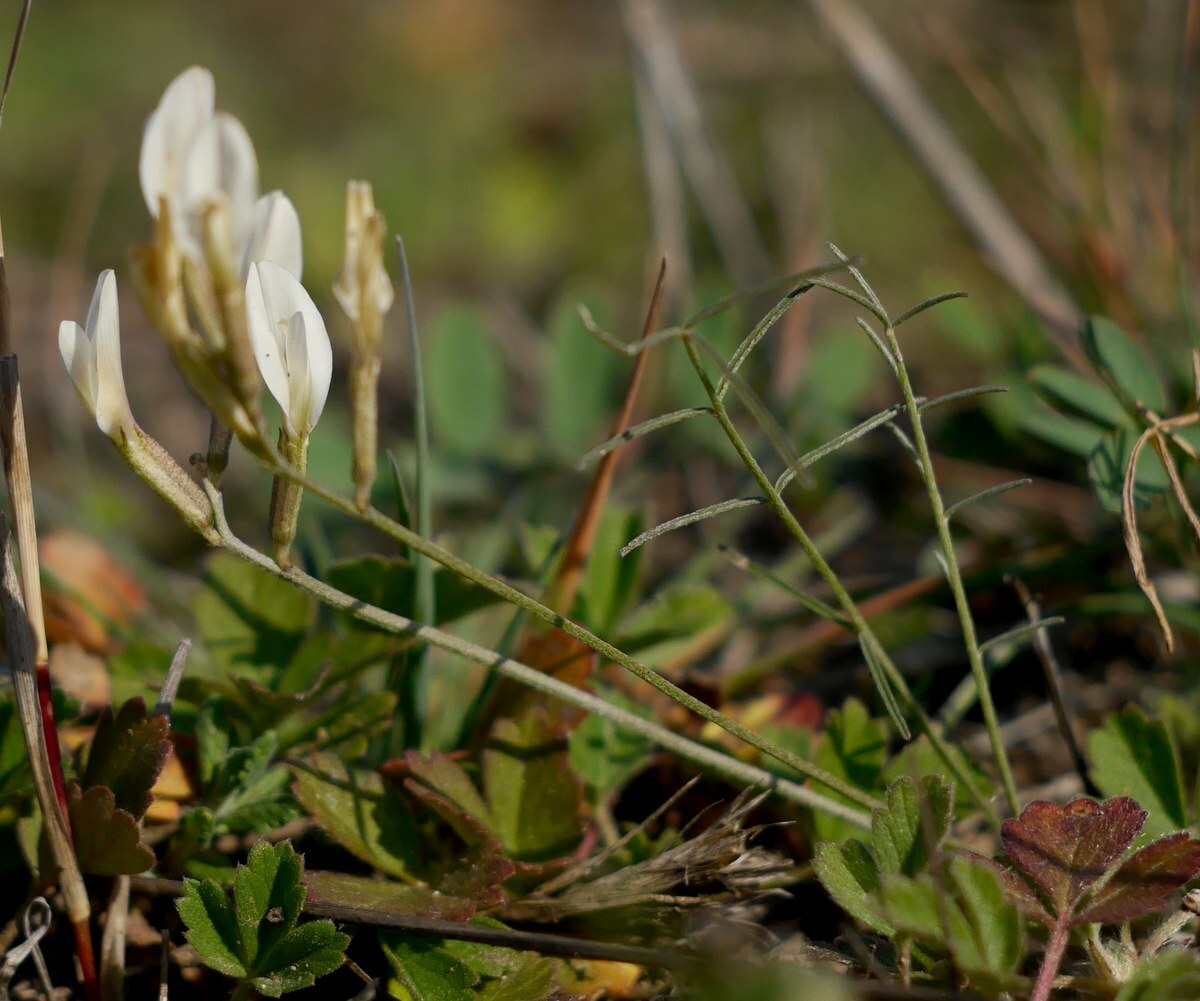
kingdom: Plantae
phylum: Tracheophyta
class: Magnoliopsida
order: Fabales
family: Fabaceae
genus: Astragalus
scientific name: Astragalus ucrainicus
